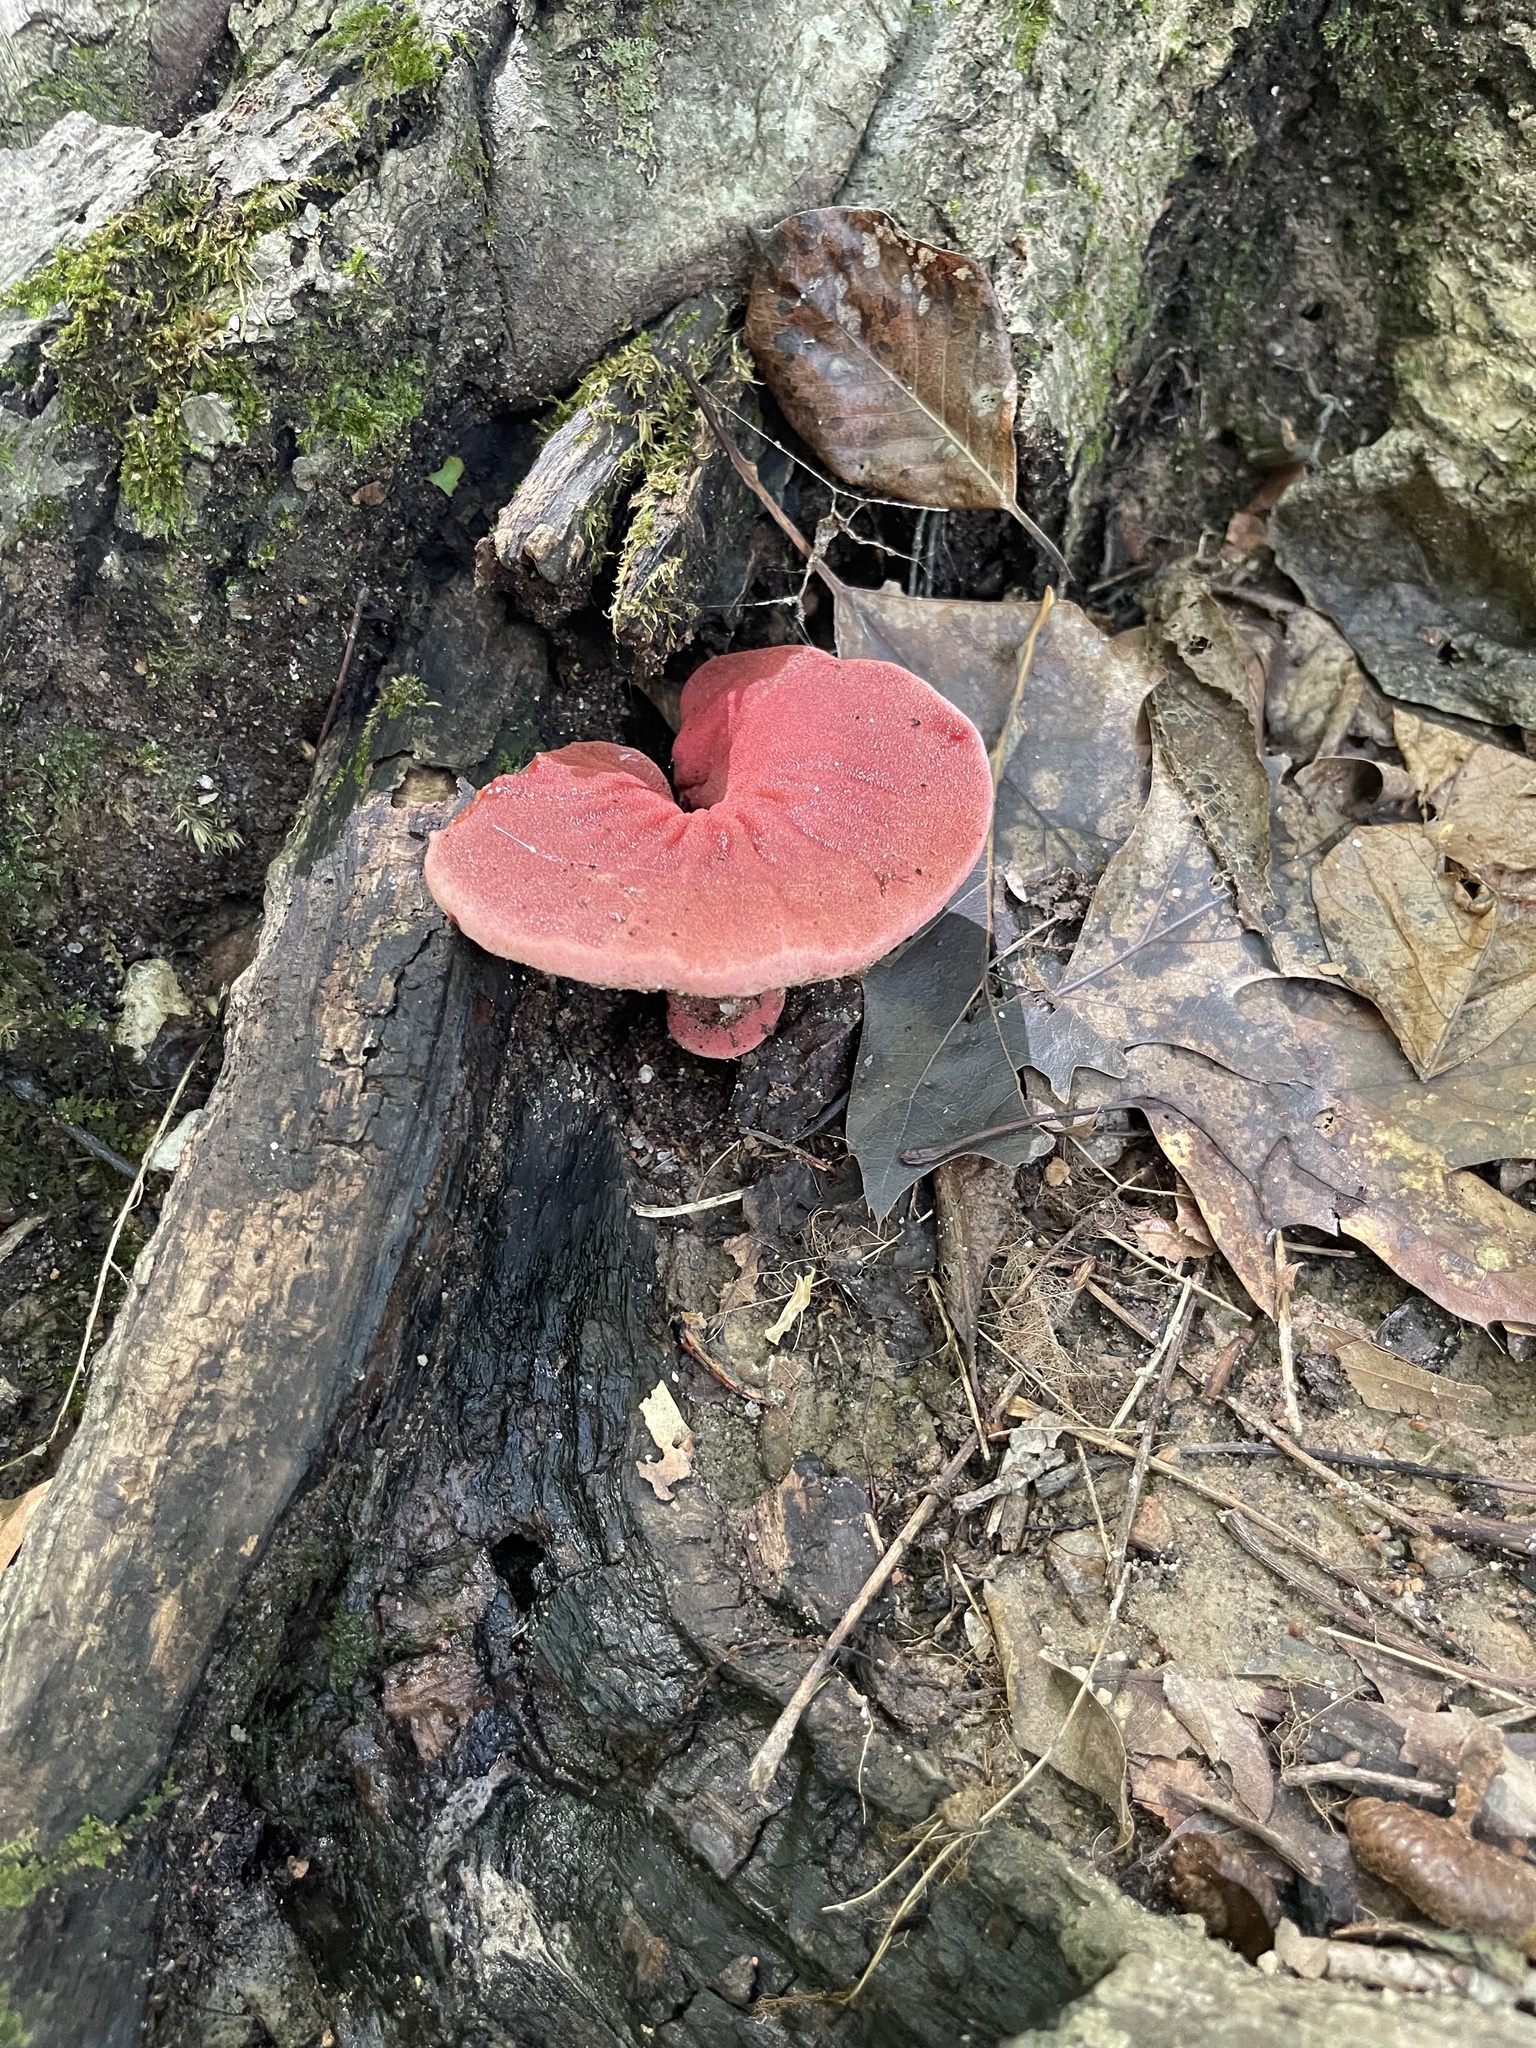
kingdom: Fungi
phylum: Basidiomycota
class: Agaricomycetes
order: Agaricales
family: Fistulinaceae
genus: Fistulina
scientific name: Fistulina hepatica
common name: Beef-steak fungus
